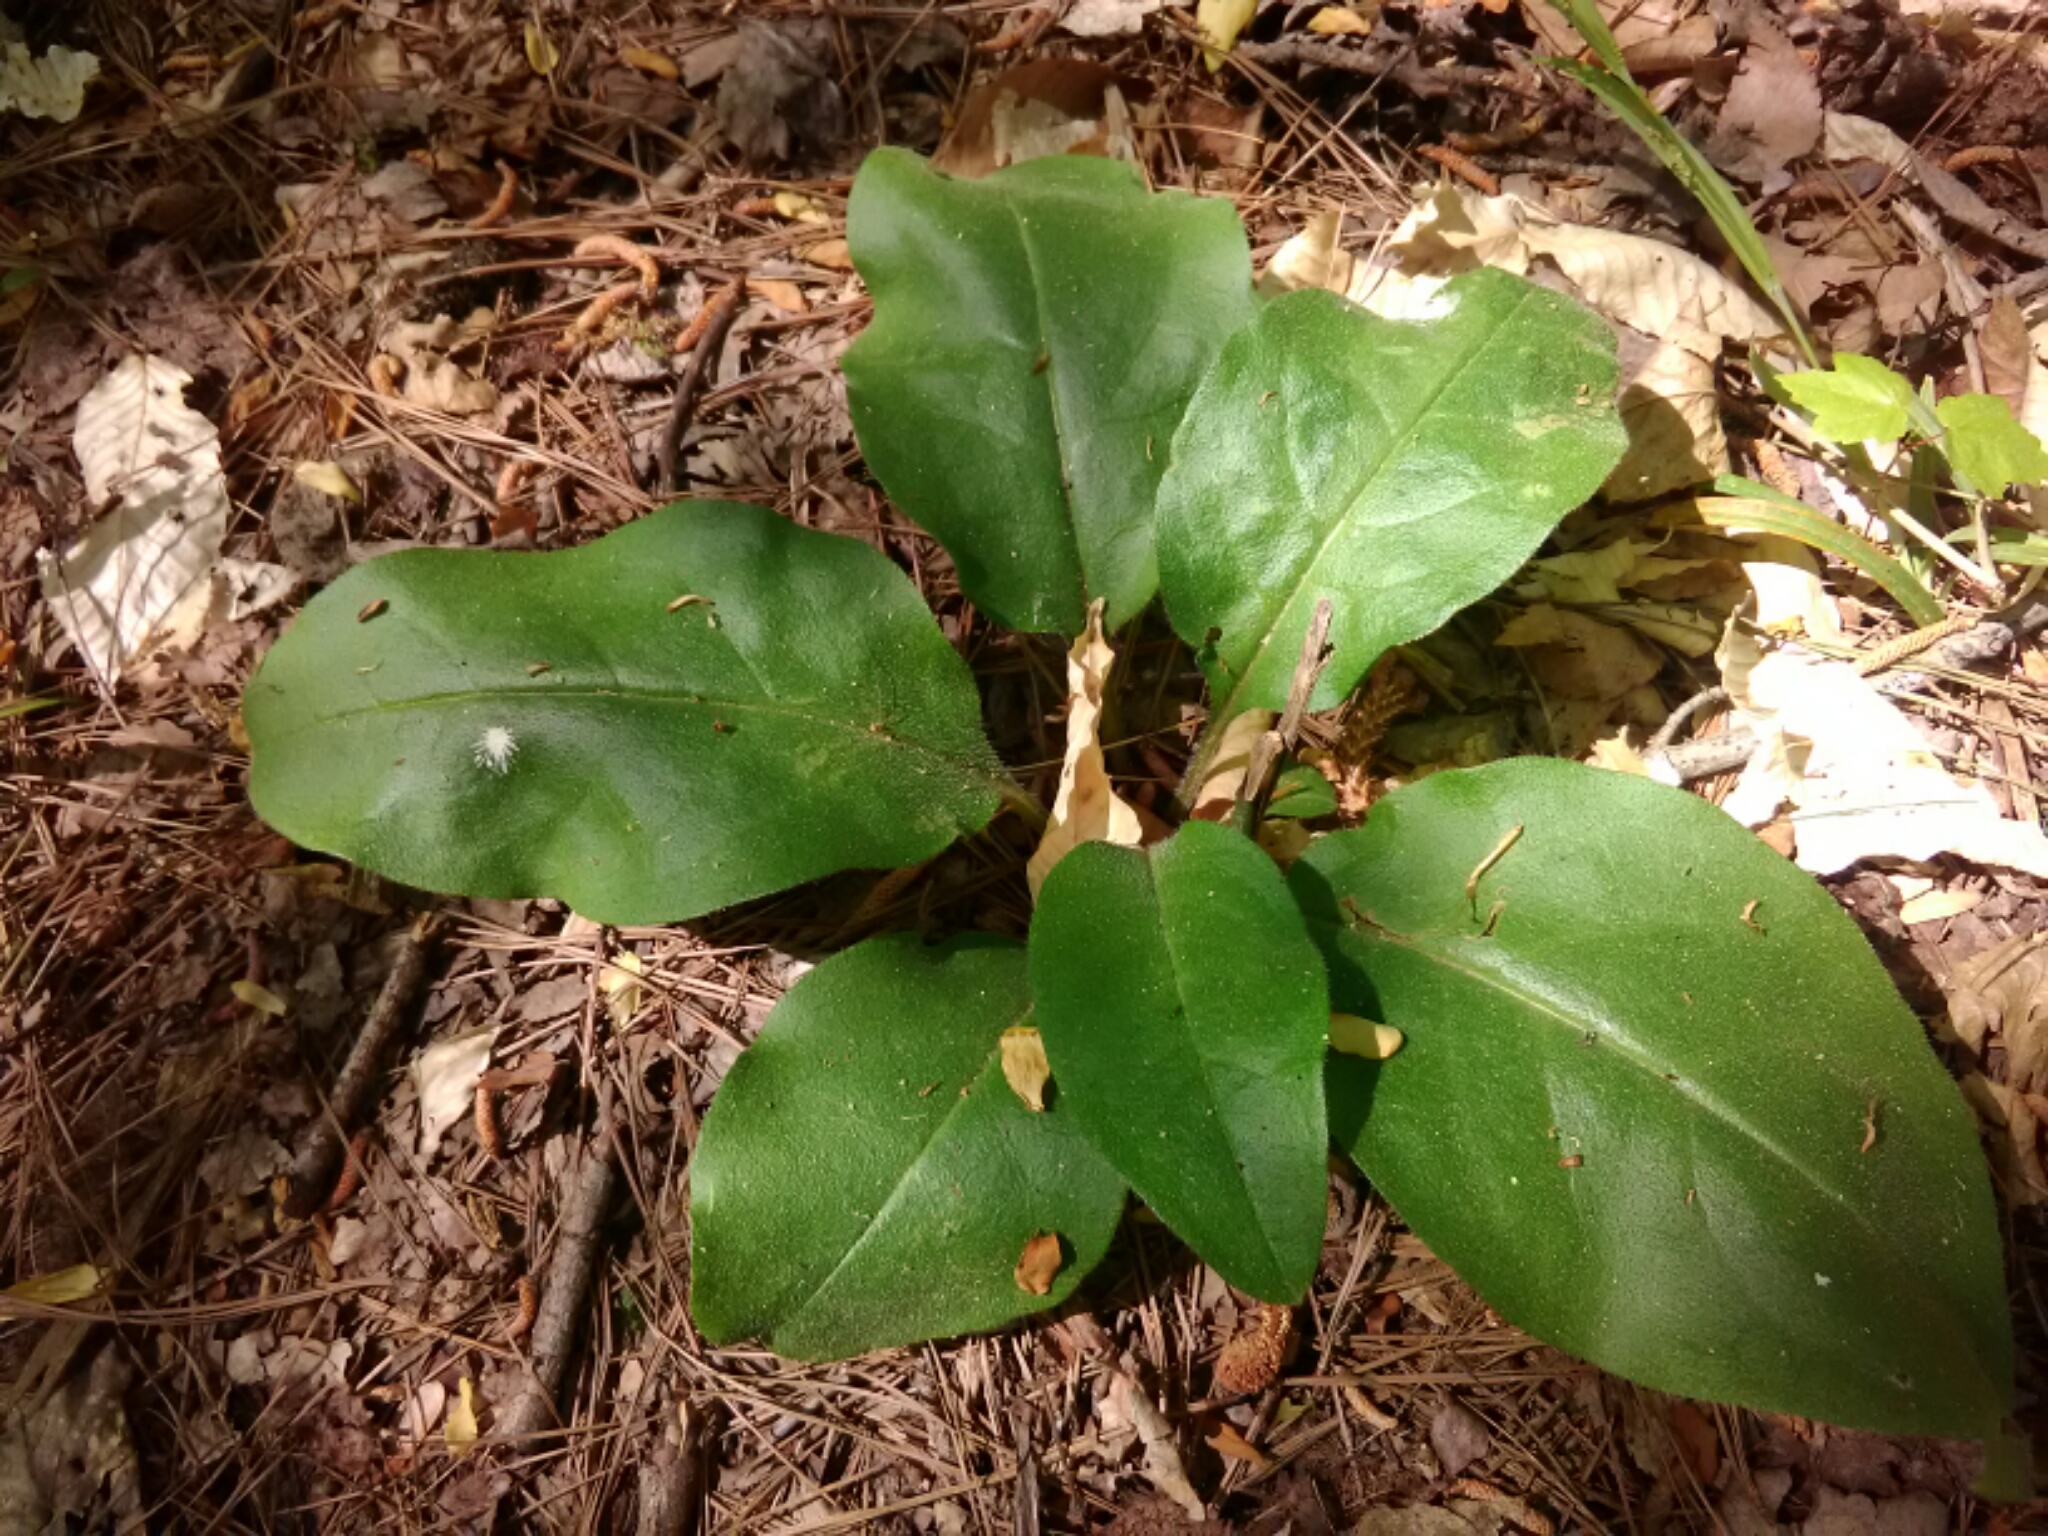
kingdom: Plantae
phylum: Tracheophyta
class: Magnoliopsida
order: Boraginales
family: Boraginaceae
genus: Andersonglossum
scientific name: Andersonglossum virginianum
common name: Wild comfrey
